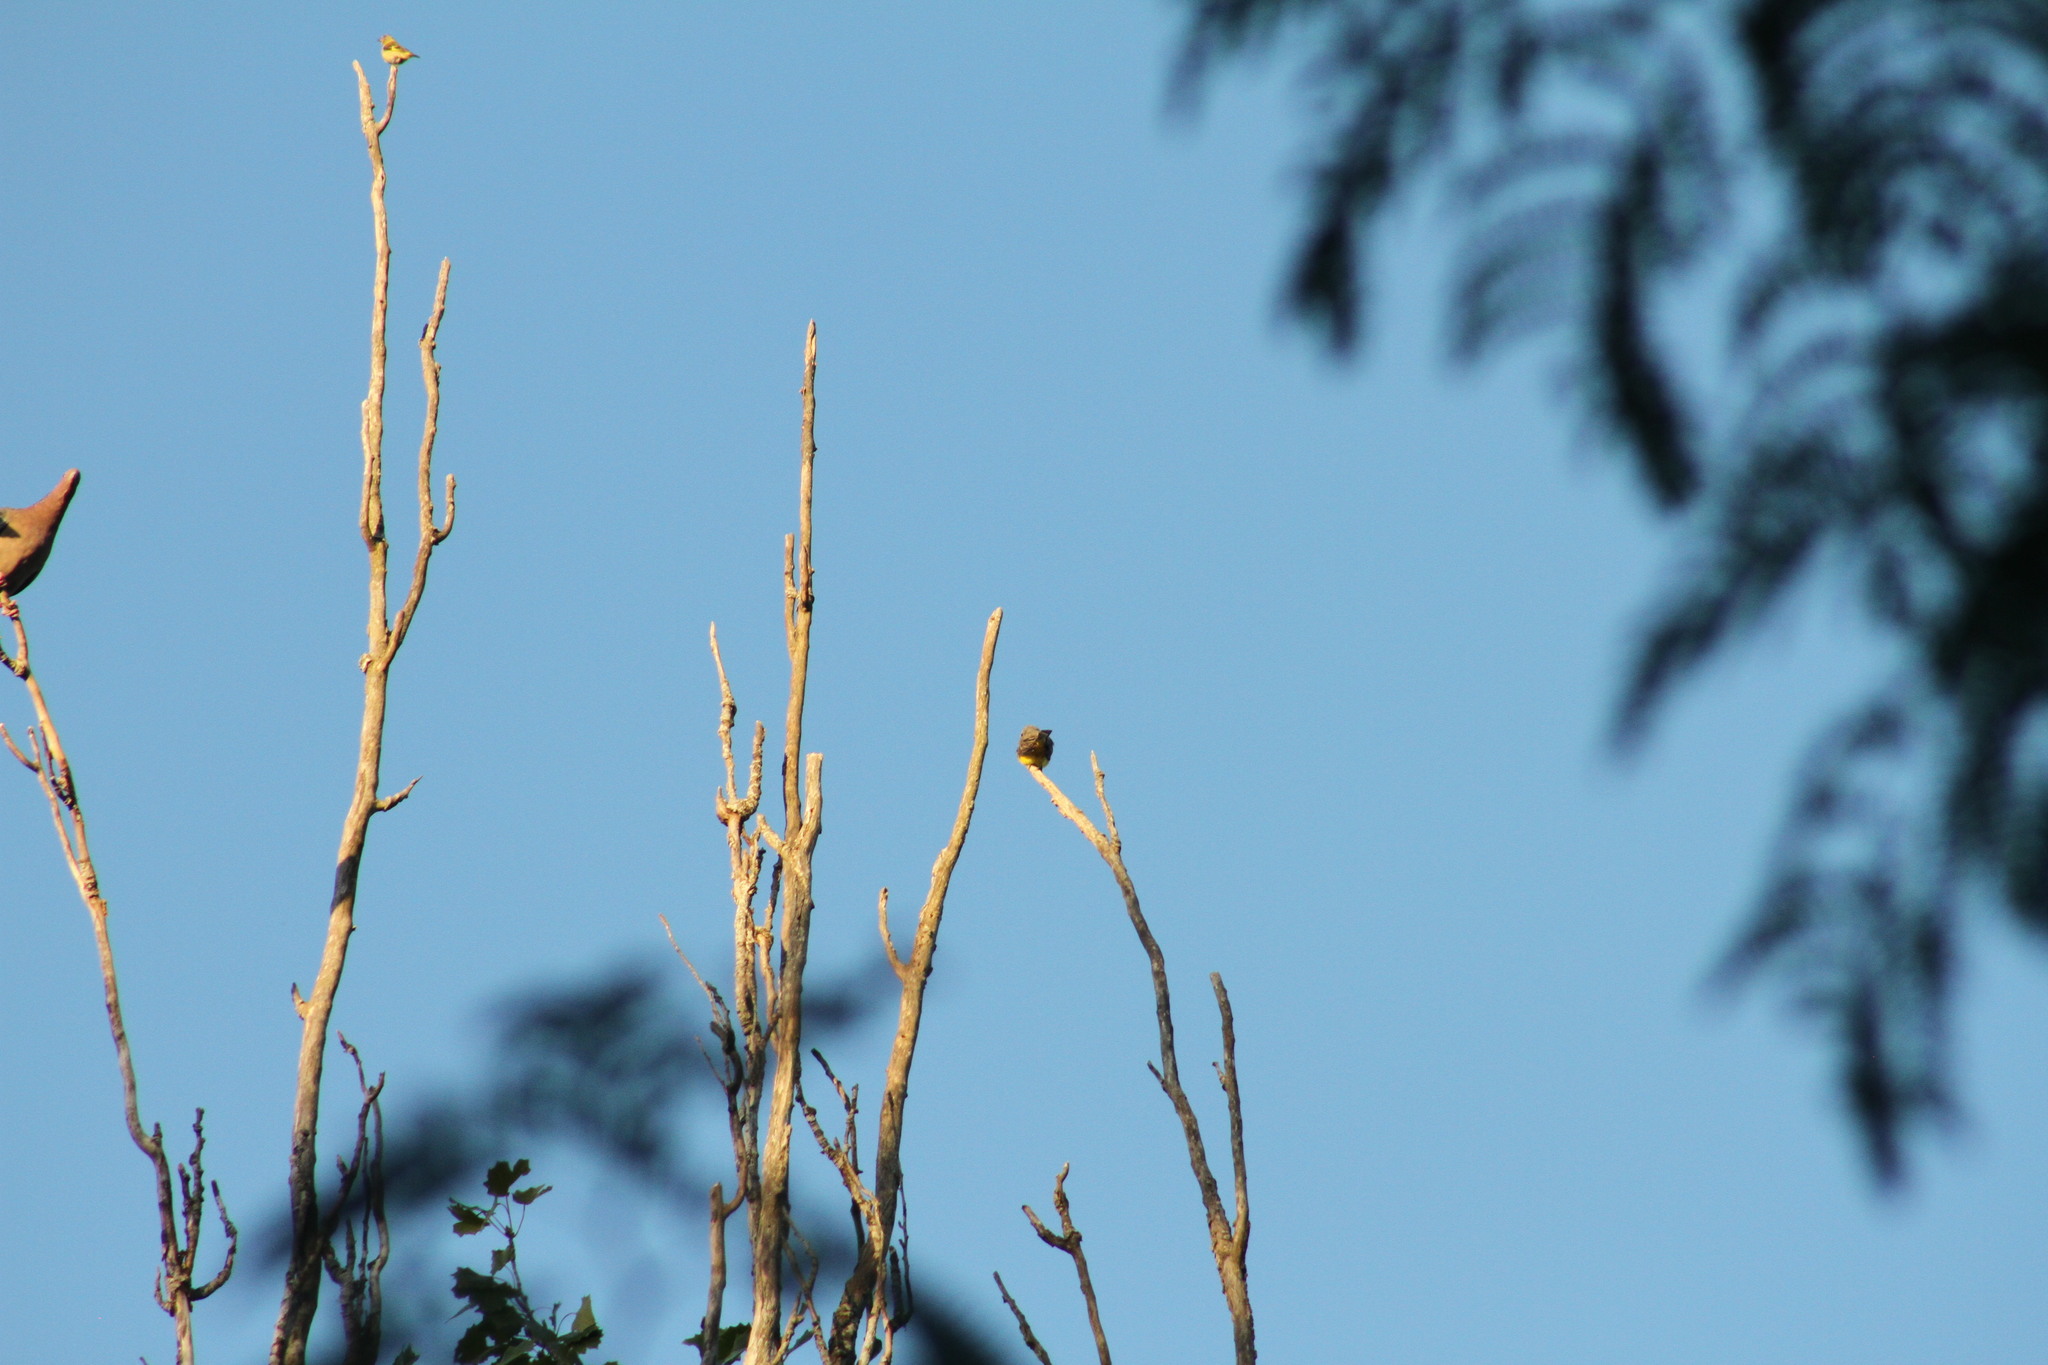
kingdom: Animalia
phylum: Chordata
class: Aves
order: Passeriformes
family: Tyrannidae
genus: Tyrannus
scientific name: Tyrannus melancholicus
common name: Tropical kingbird
